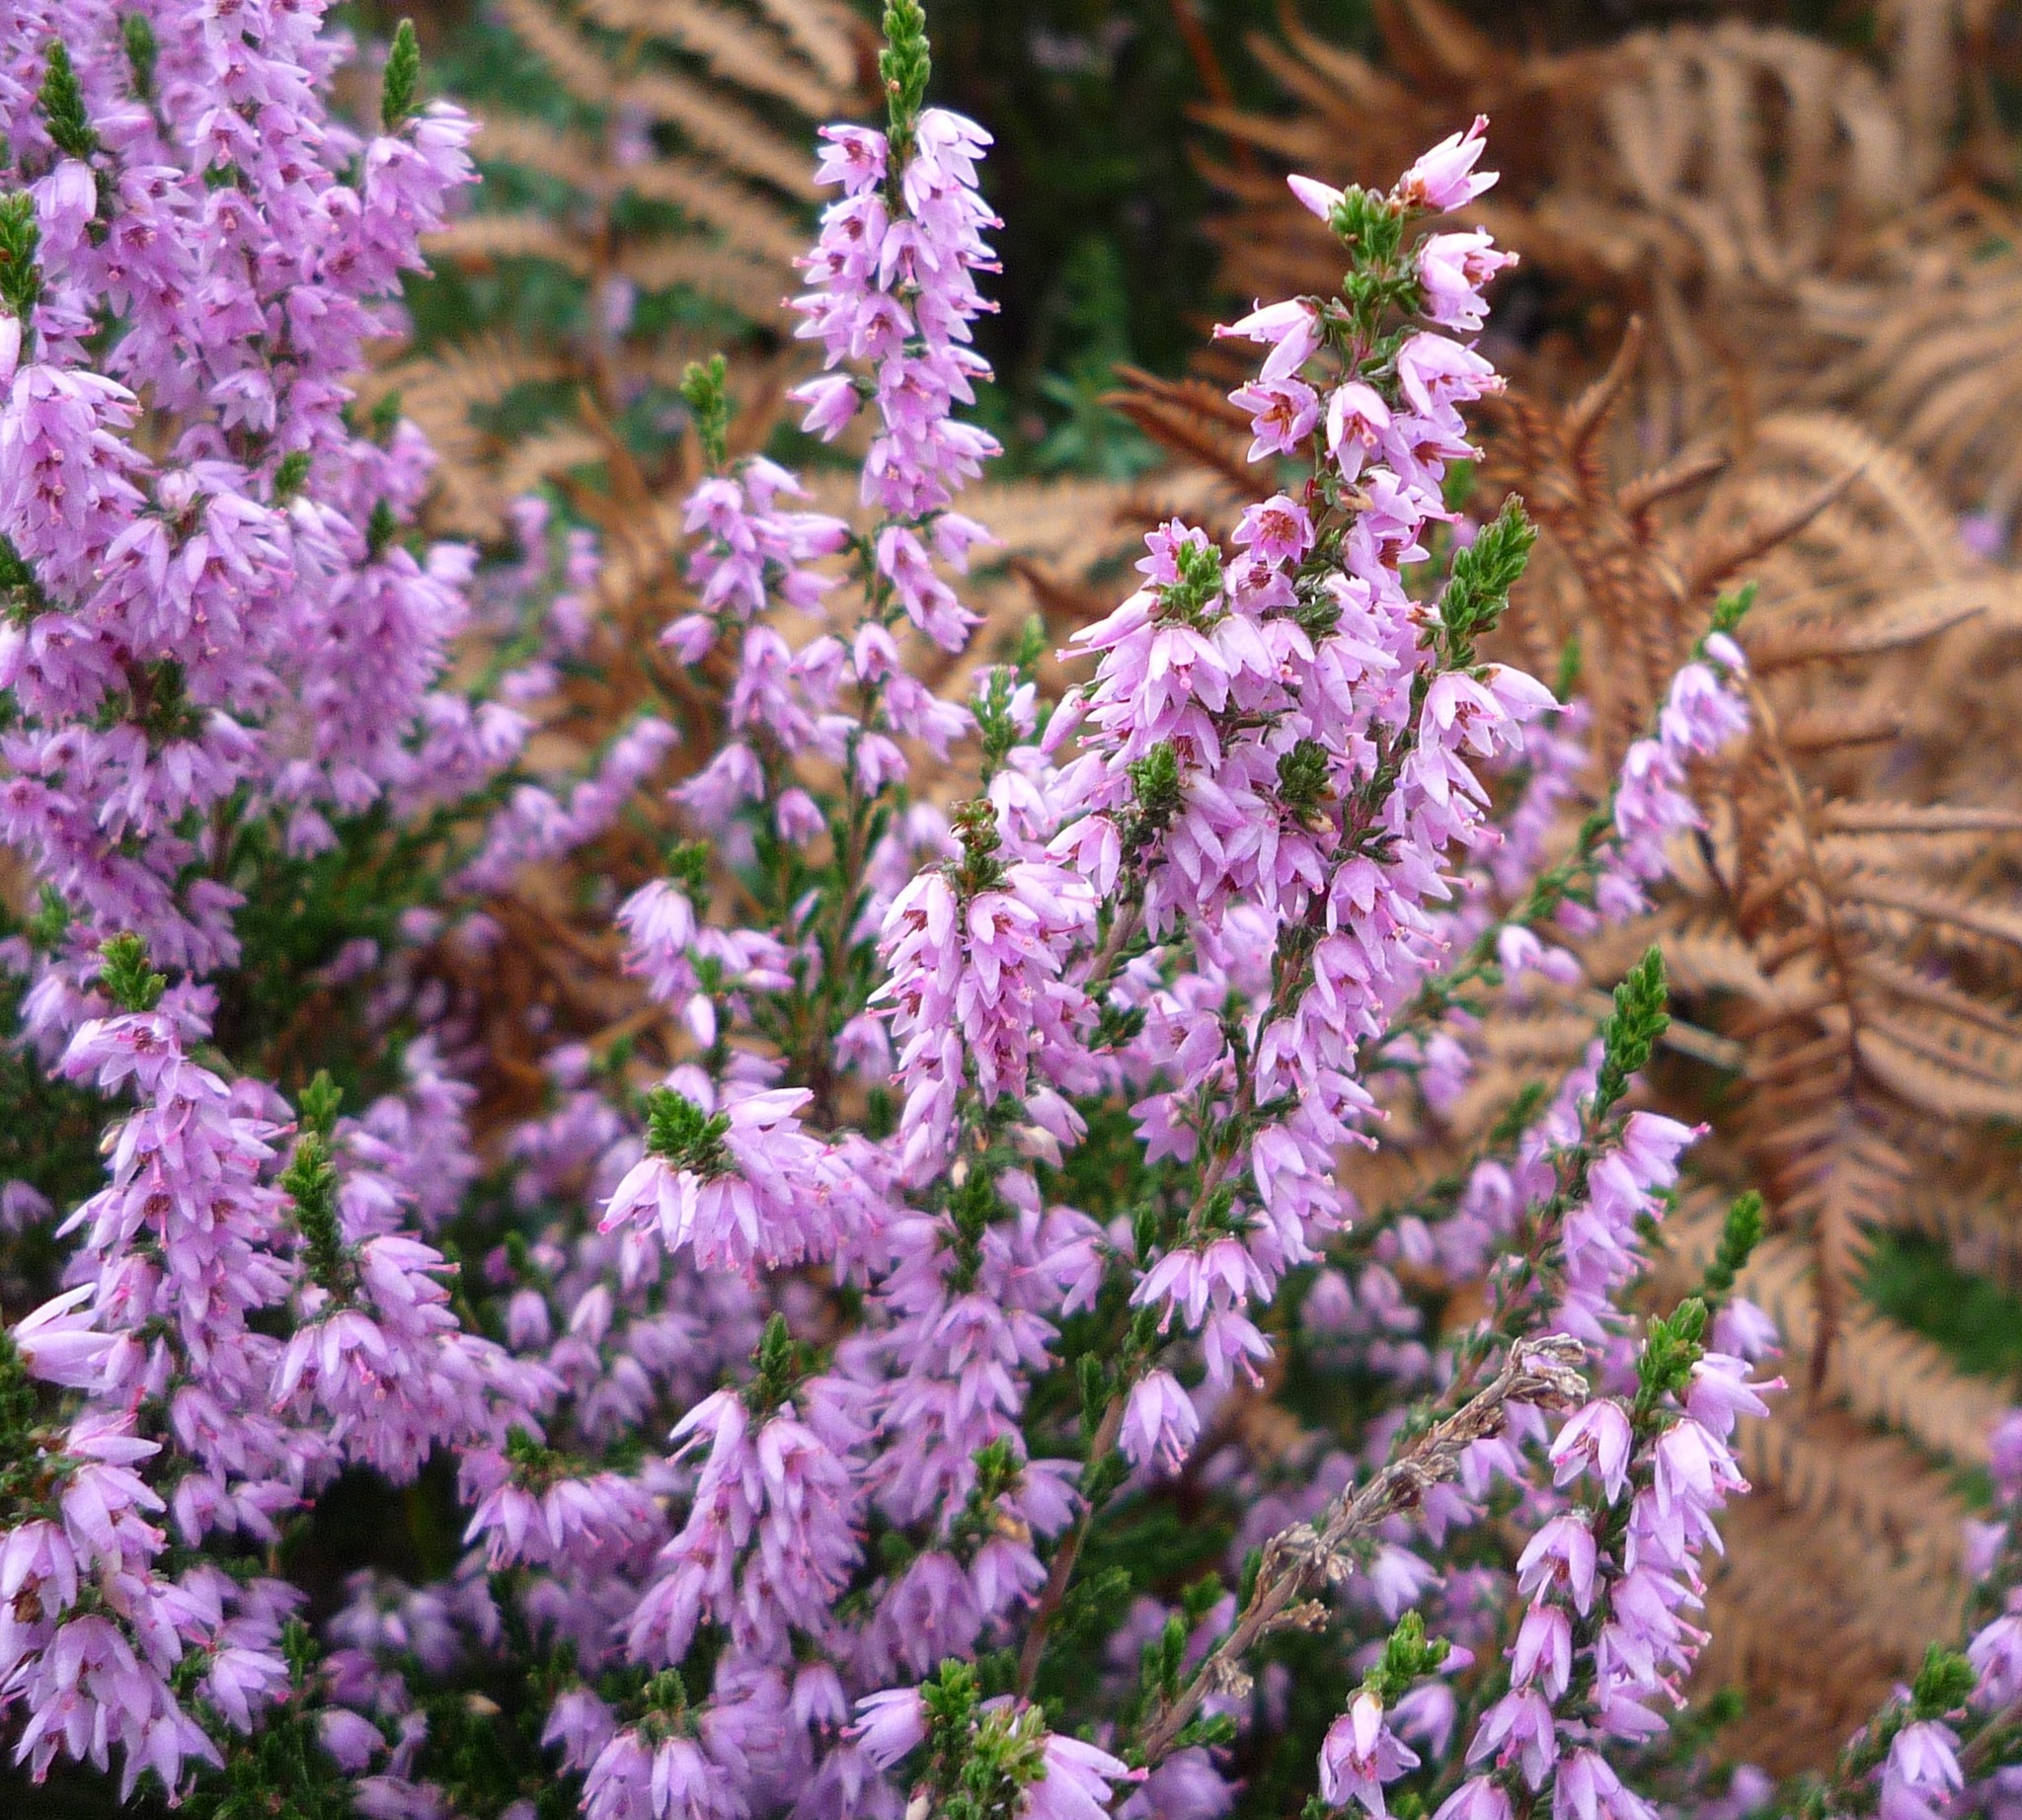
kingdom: Plantae
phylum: Tracheophyta
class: Magnoliopsida
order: Ericales
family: Ericaceae
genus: Calluna
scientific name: Calluna vulgaris
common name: Heather
